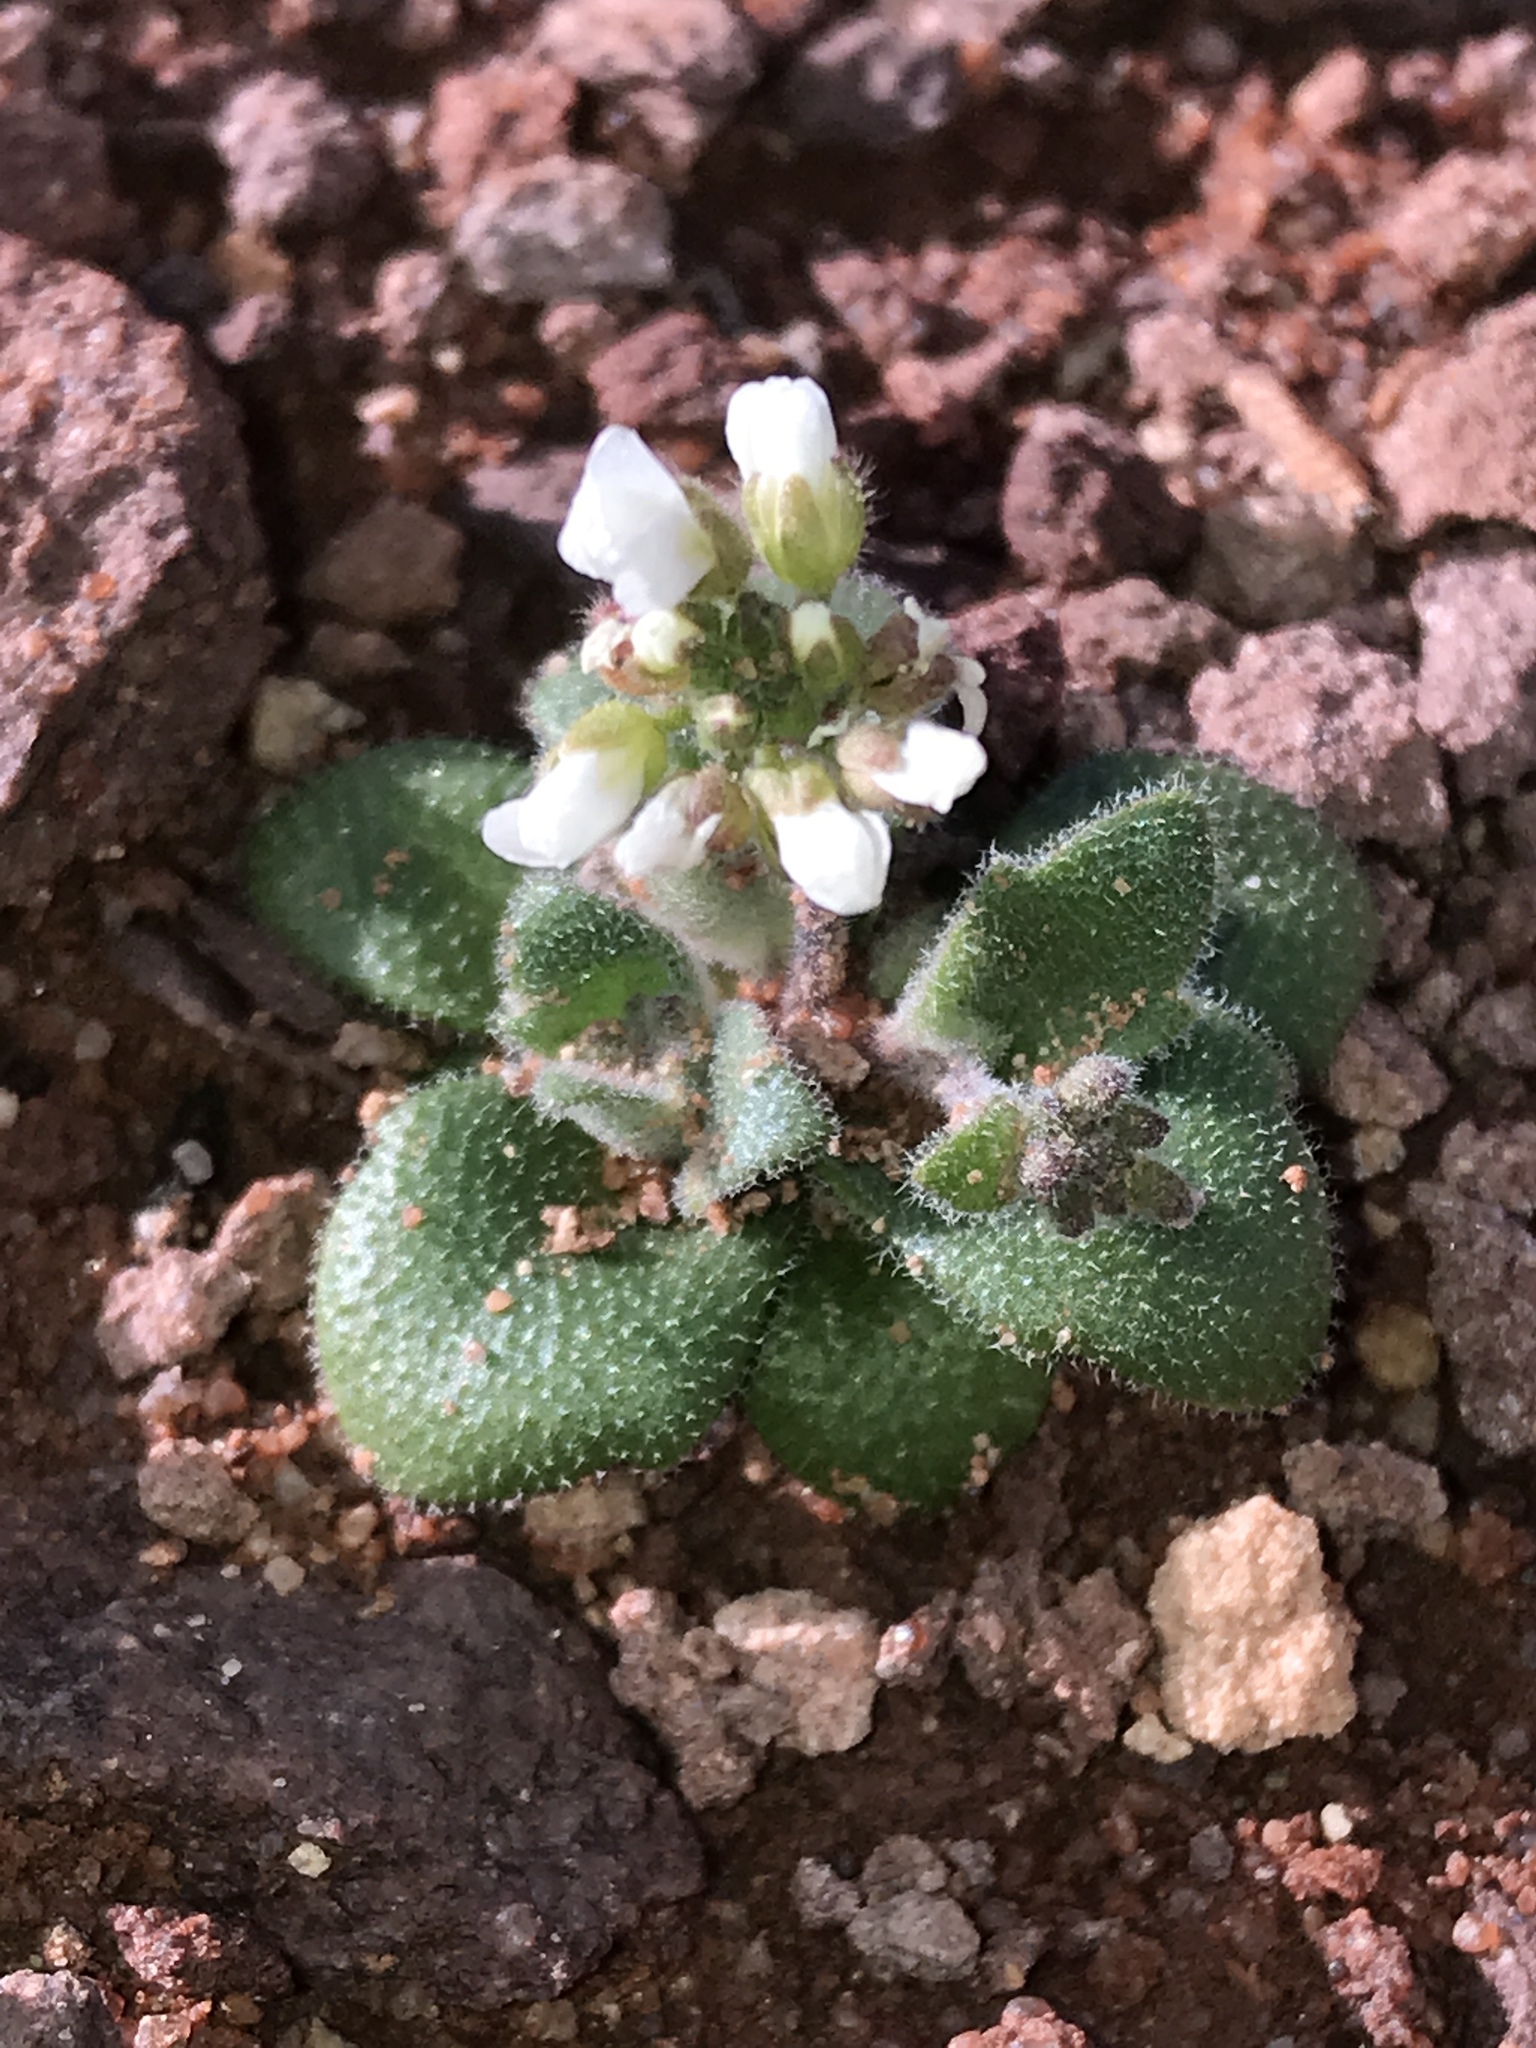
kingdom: Plantae
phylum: Tracheophyta
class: Magnoliopsida
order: Brassicales
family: Brassicaceae
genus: Tomostima
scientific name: Tomostima cuneifolia
